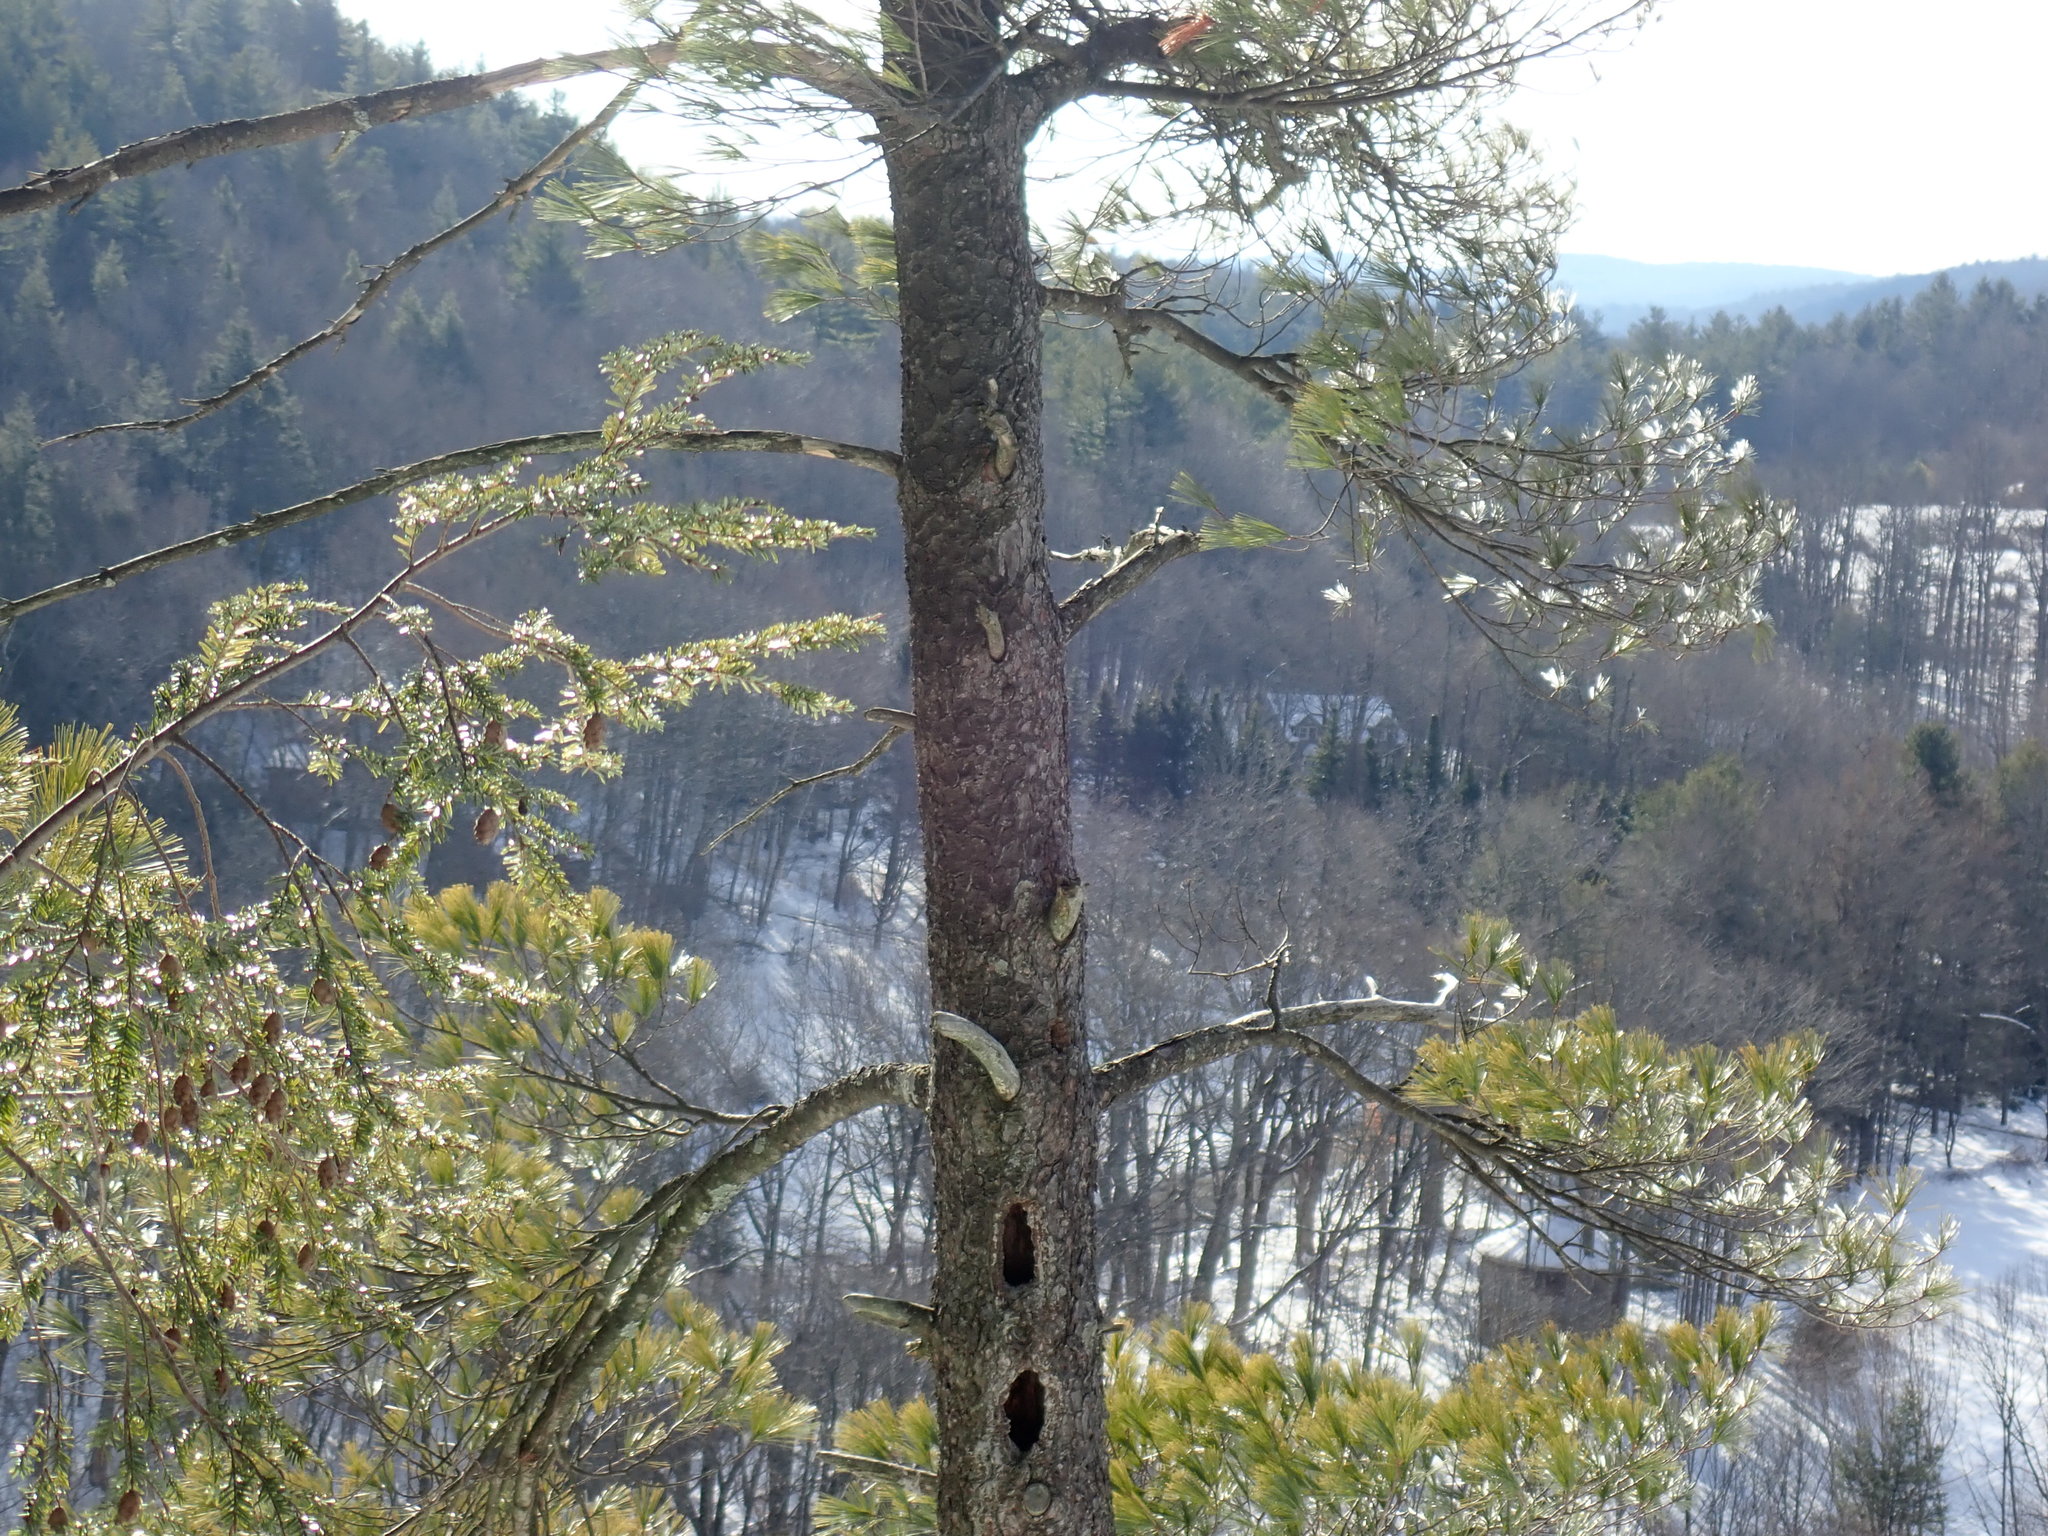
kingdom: Animalia
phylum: Chordata
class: Aves
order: Piciformes
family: Picidae
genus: Dryocopus
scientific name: Dryocopus pileatus
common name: Pileated woodpecker
